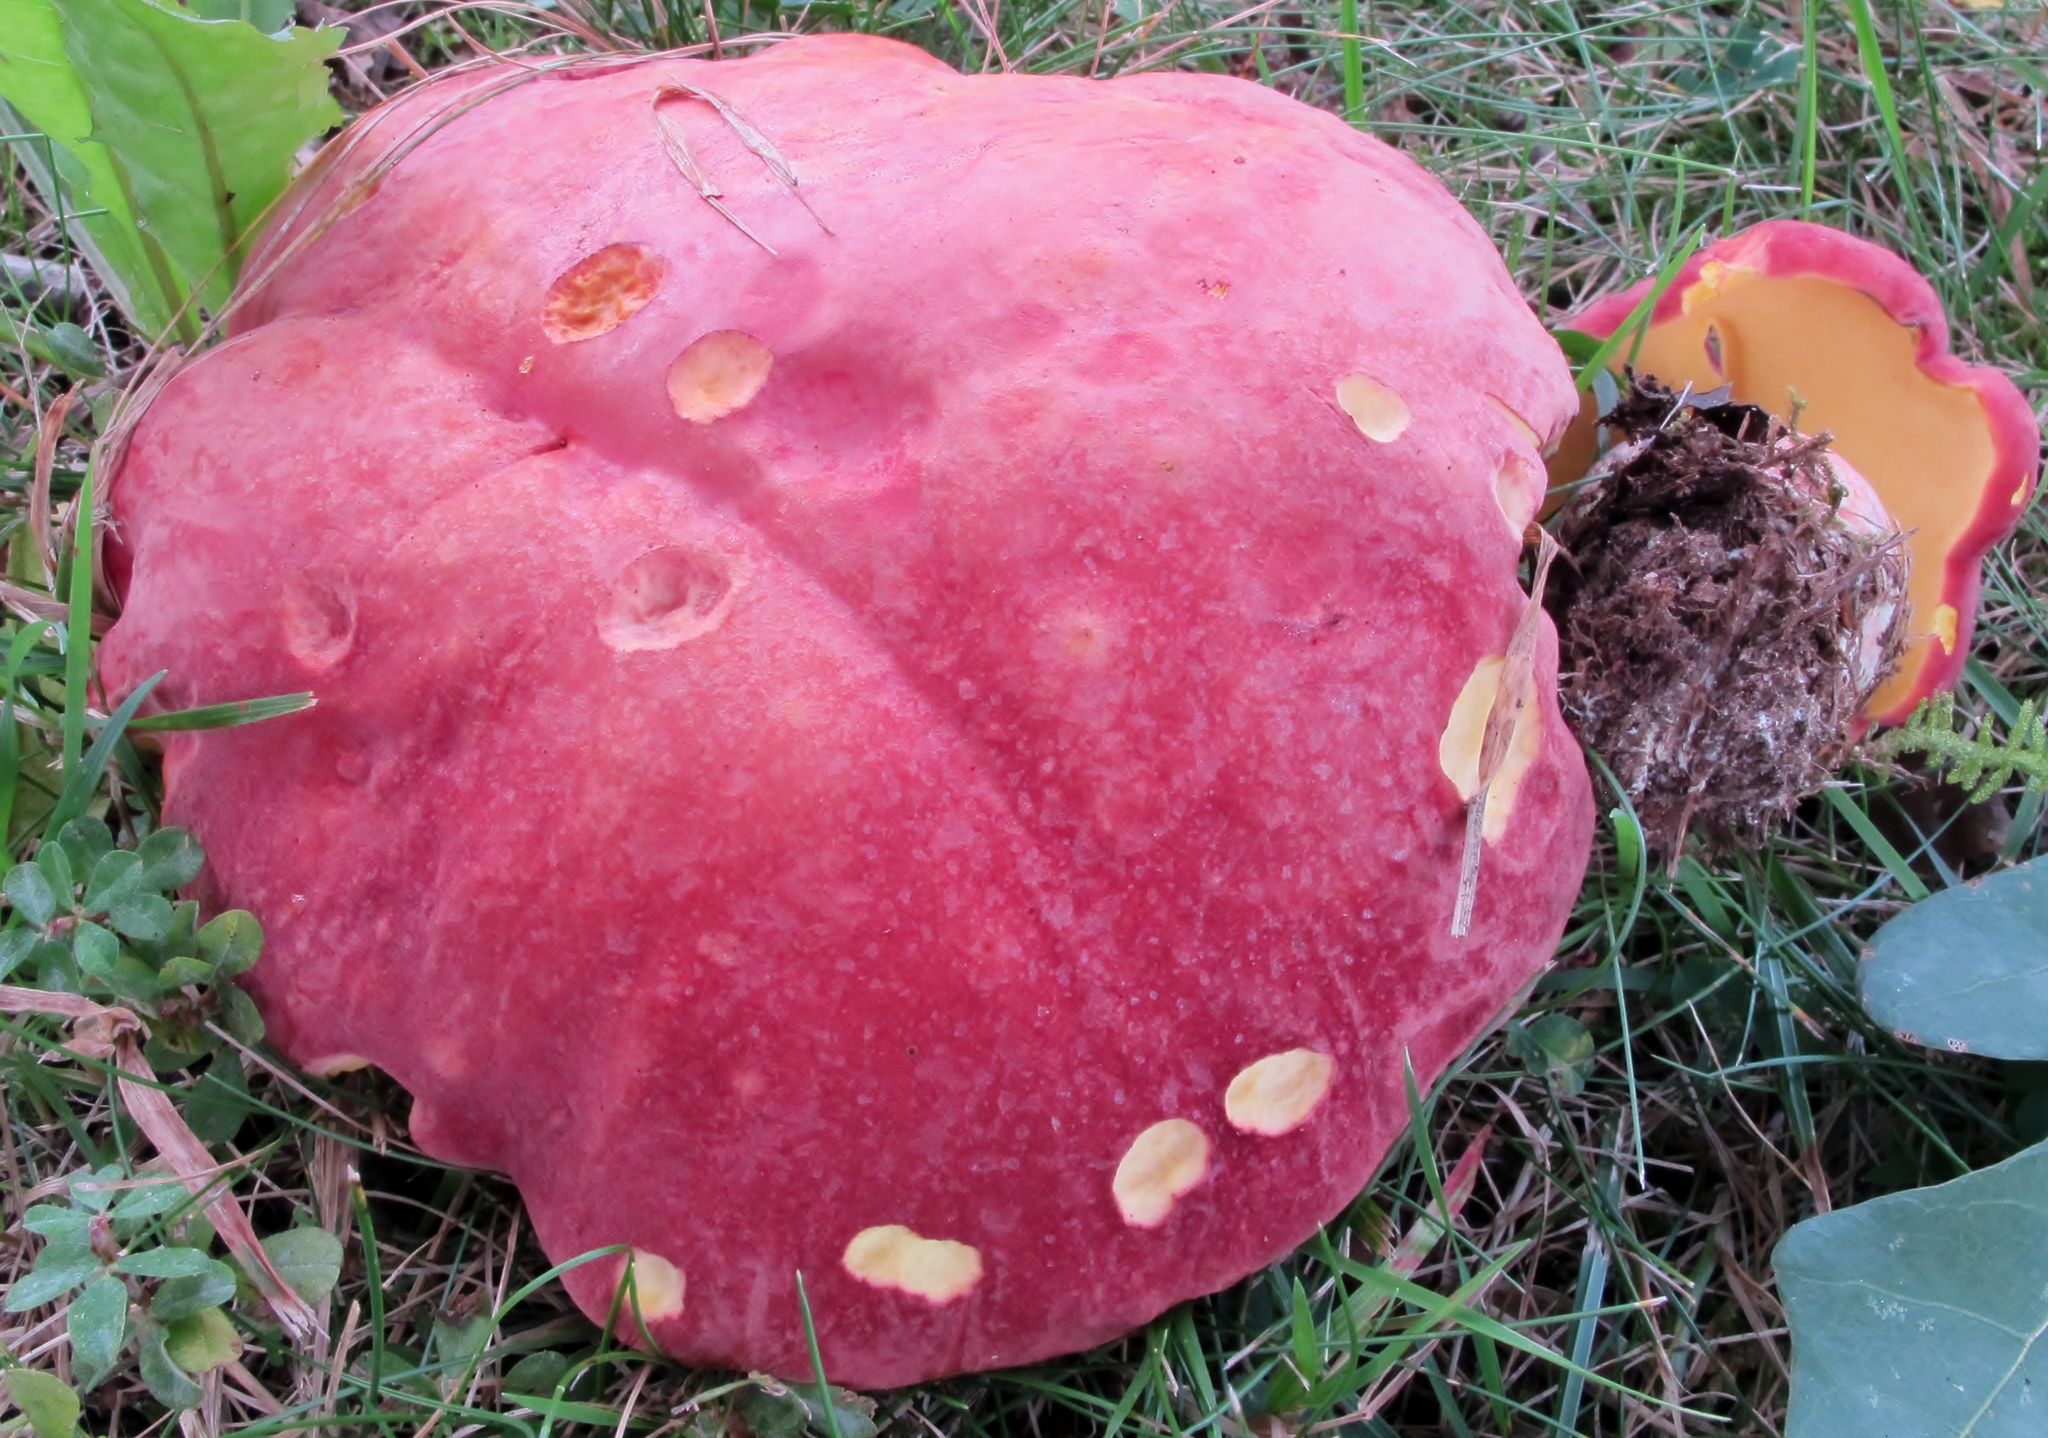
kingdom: Fungi
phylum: Basidiomycota
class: Agaricomycetes
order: Boletales
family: Boletaceae
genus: Boletus
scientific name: Boletus miniatopallescens
